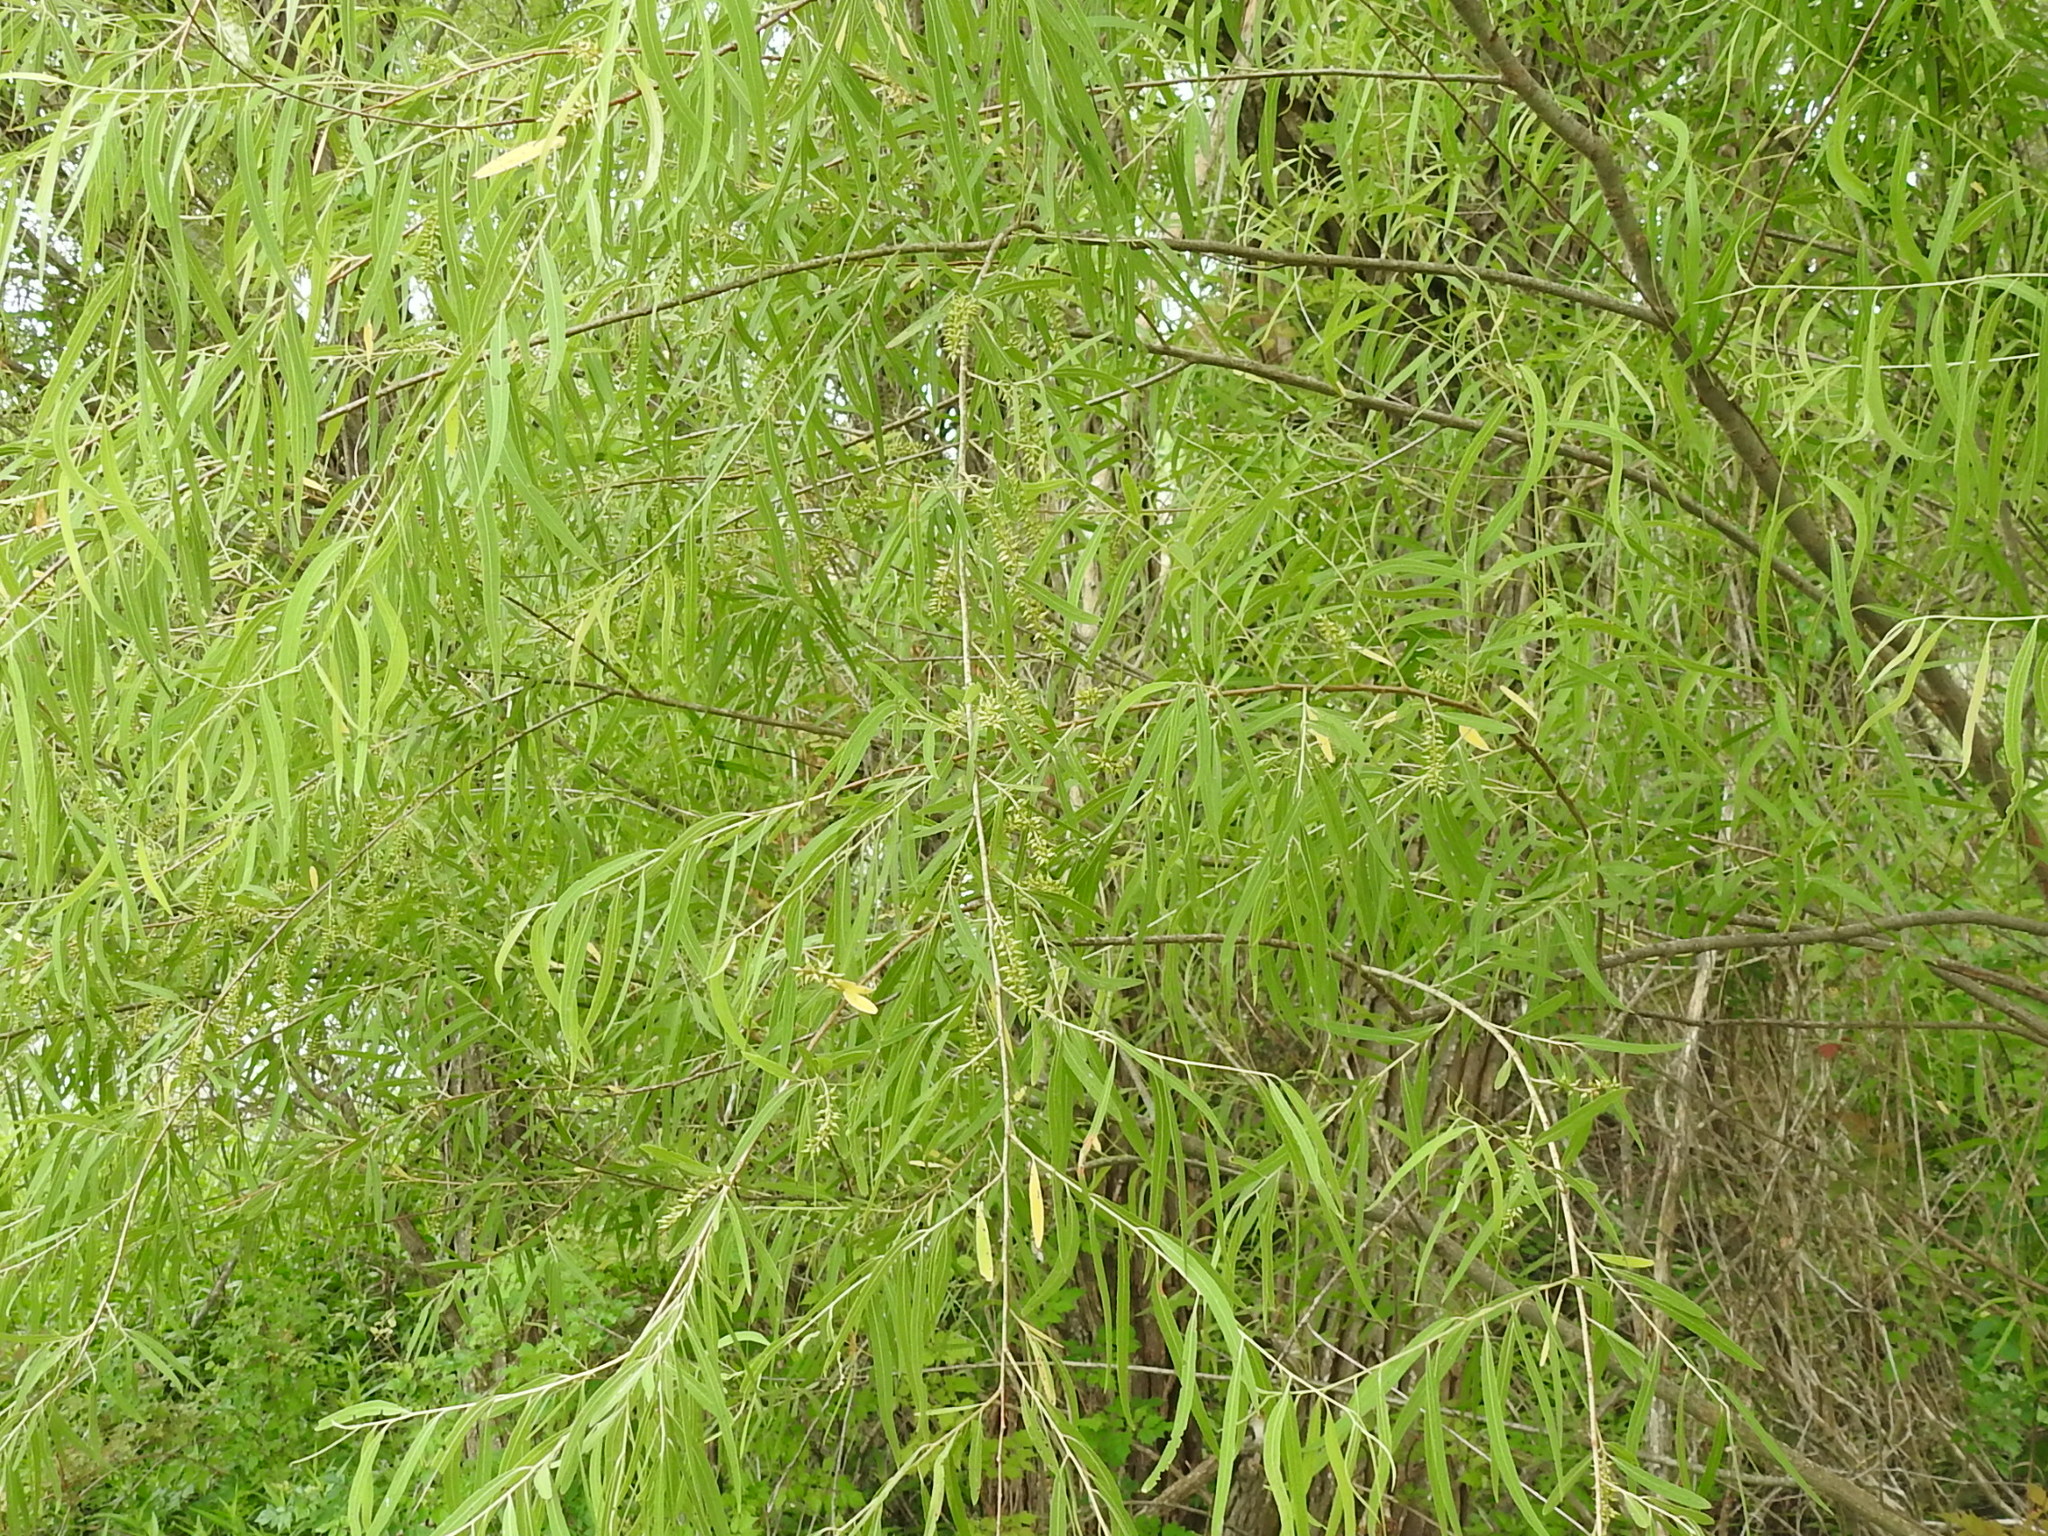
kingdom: Plantae
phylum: Tracheophyta
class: Magnoliopsida
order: Malpighiales
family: Salicaceae
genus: Salix
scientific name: Salix nigra
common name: Black willow
